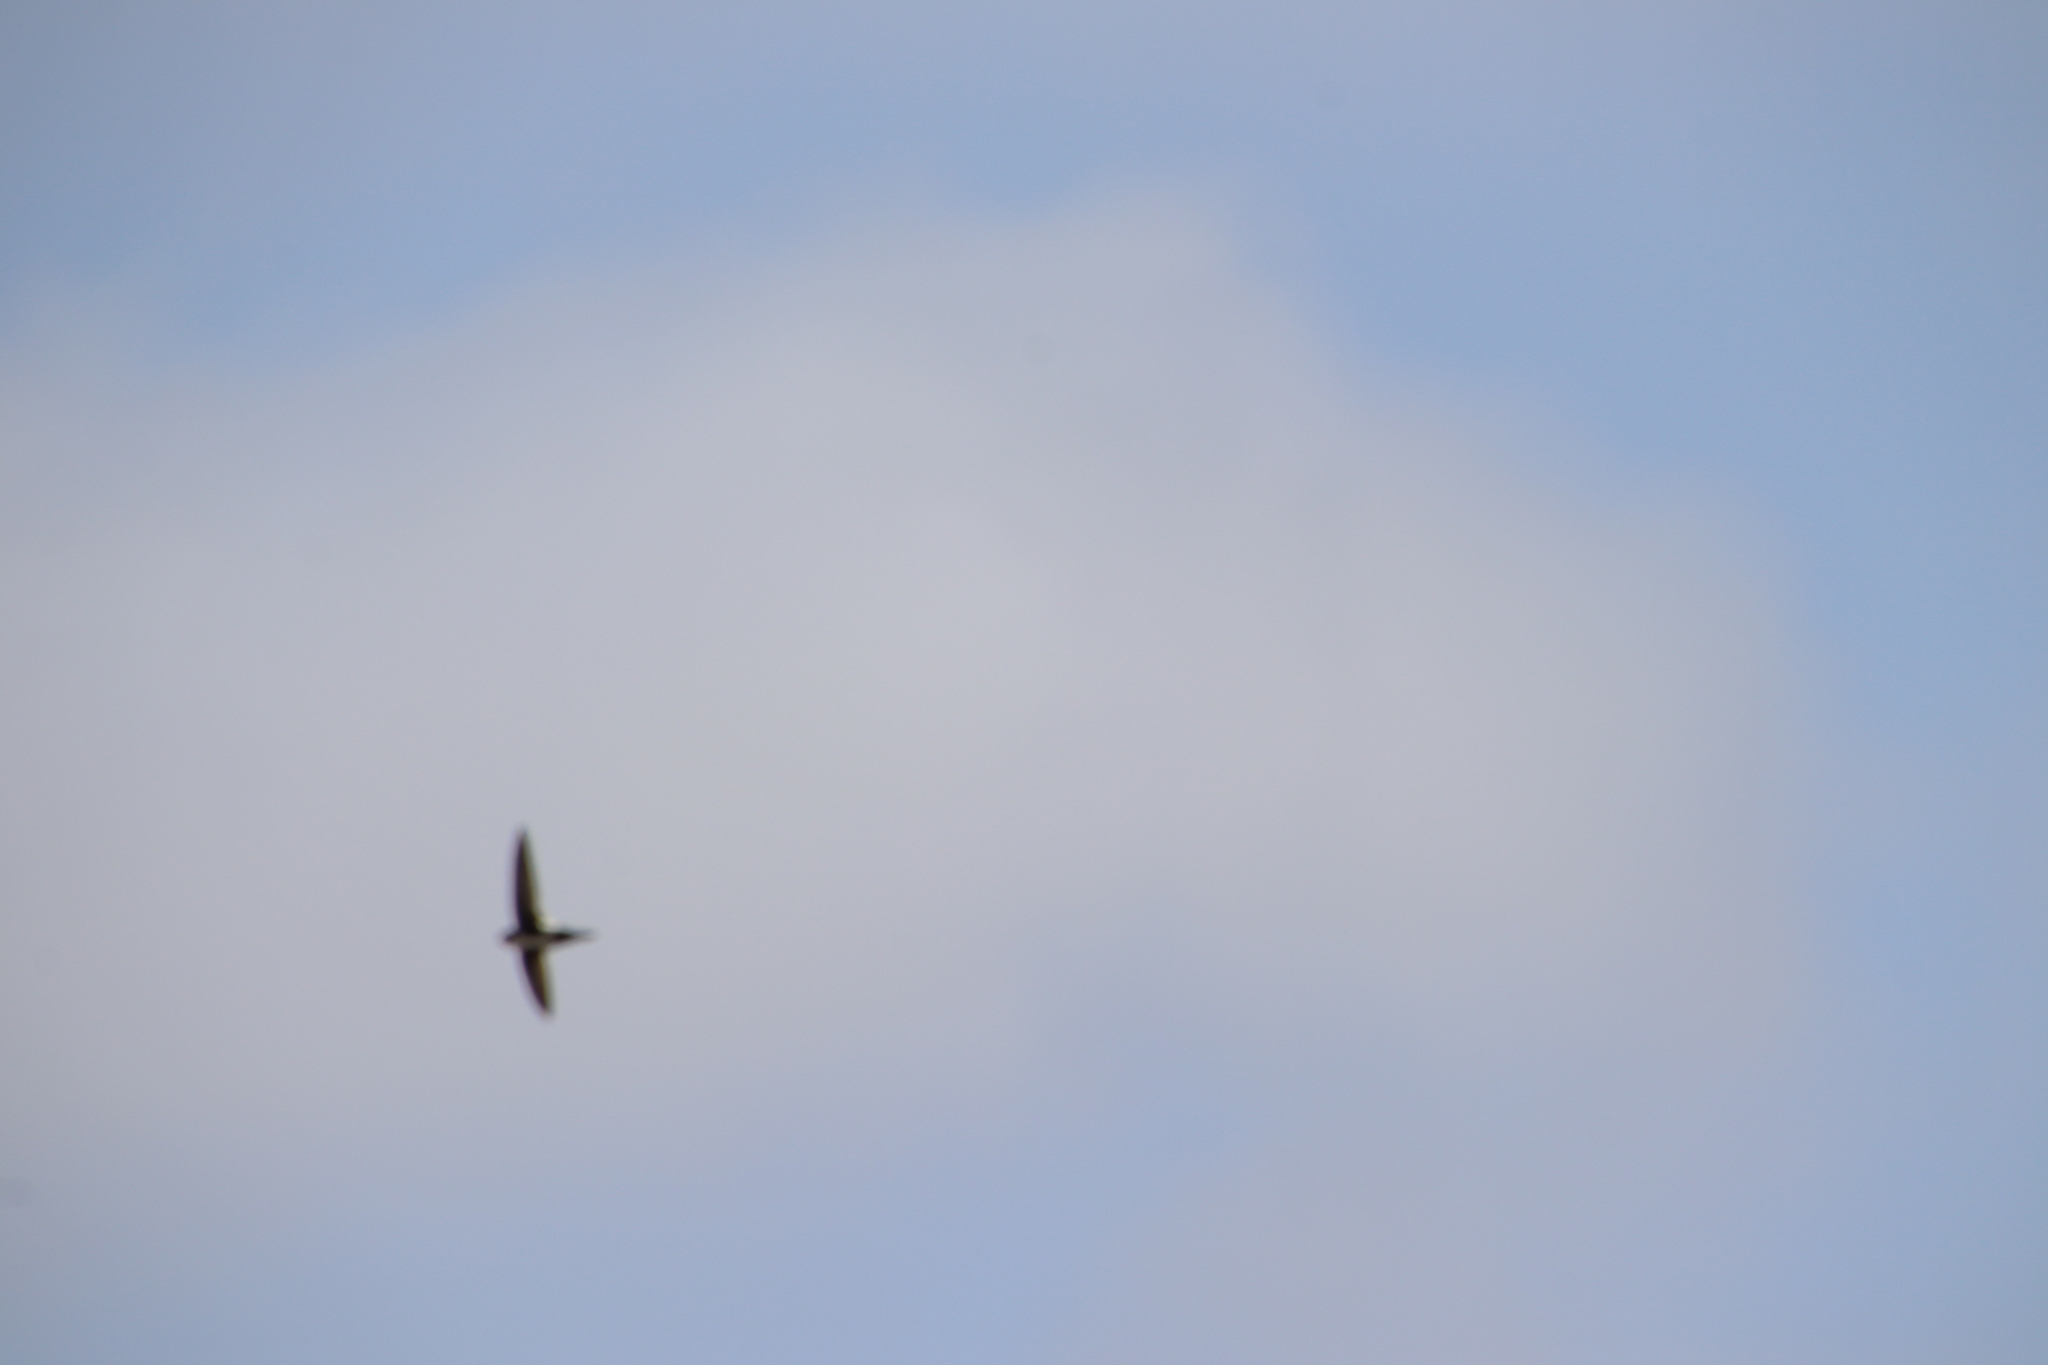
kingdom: Animalia
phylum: Chordata
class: Aves
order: Apodiformes
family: Apodidae
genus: Aeronautes
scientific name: Aeronautes saxatalis
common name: White-throated swift
